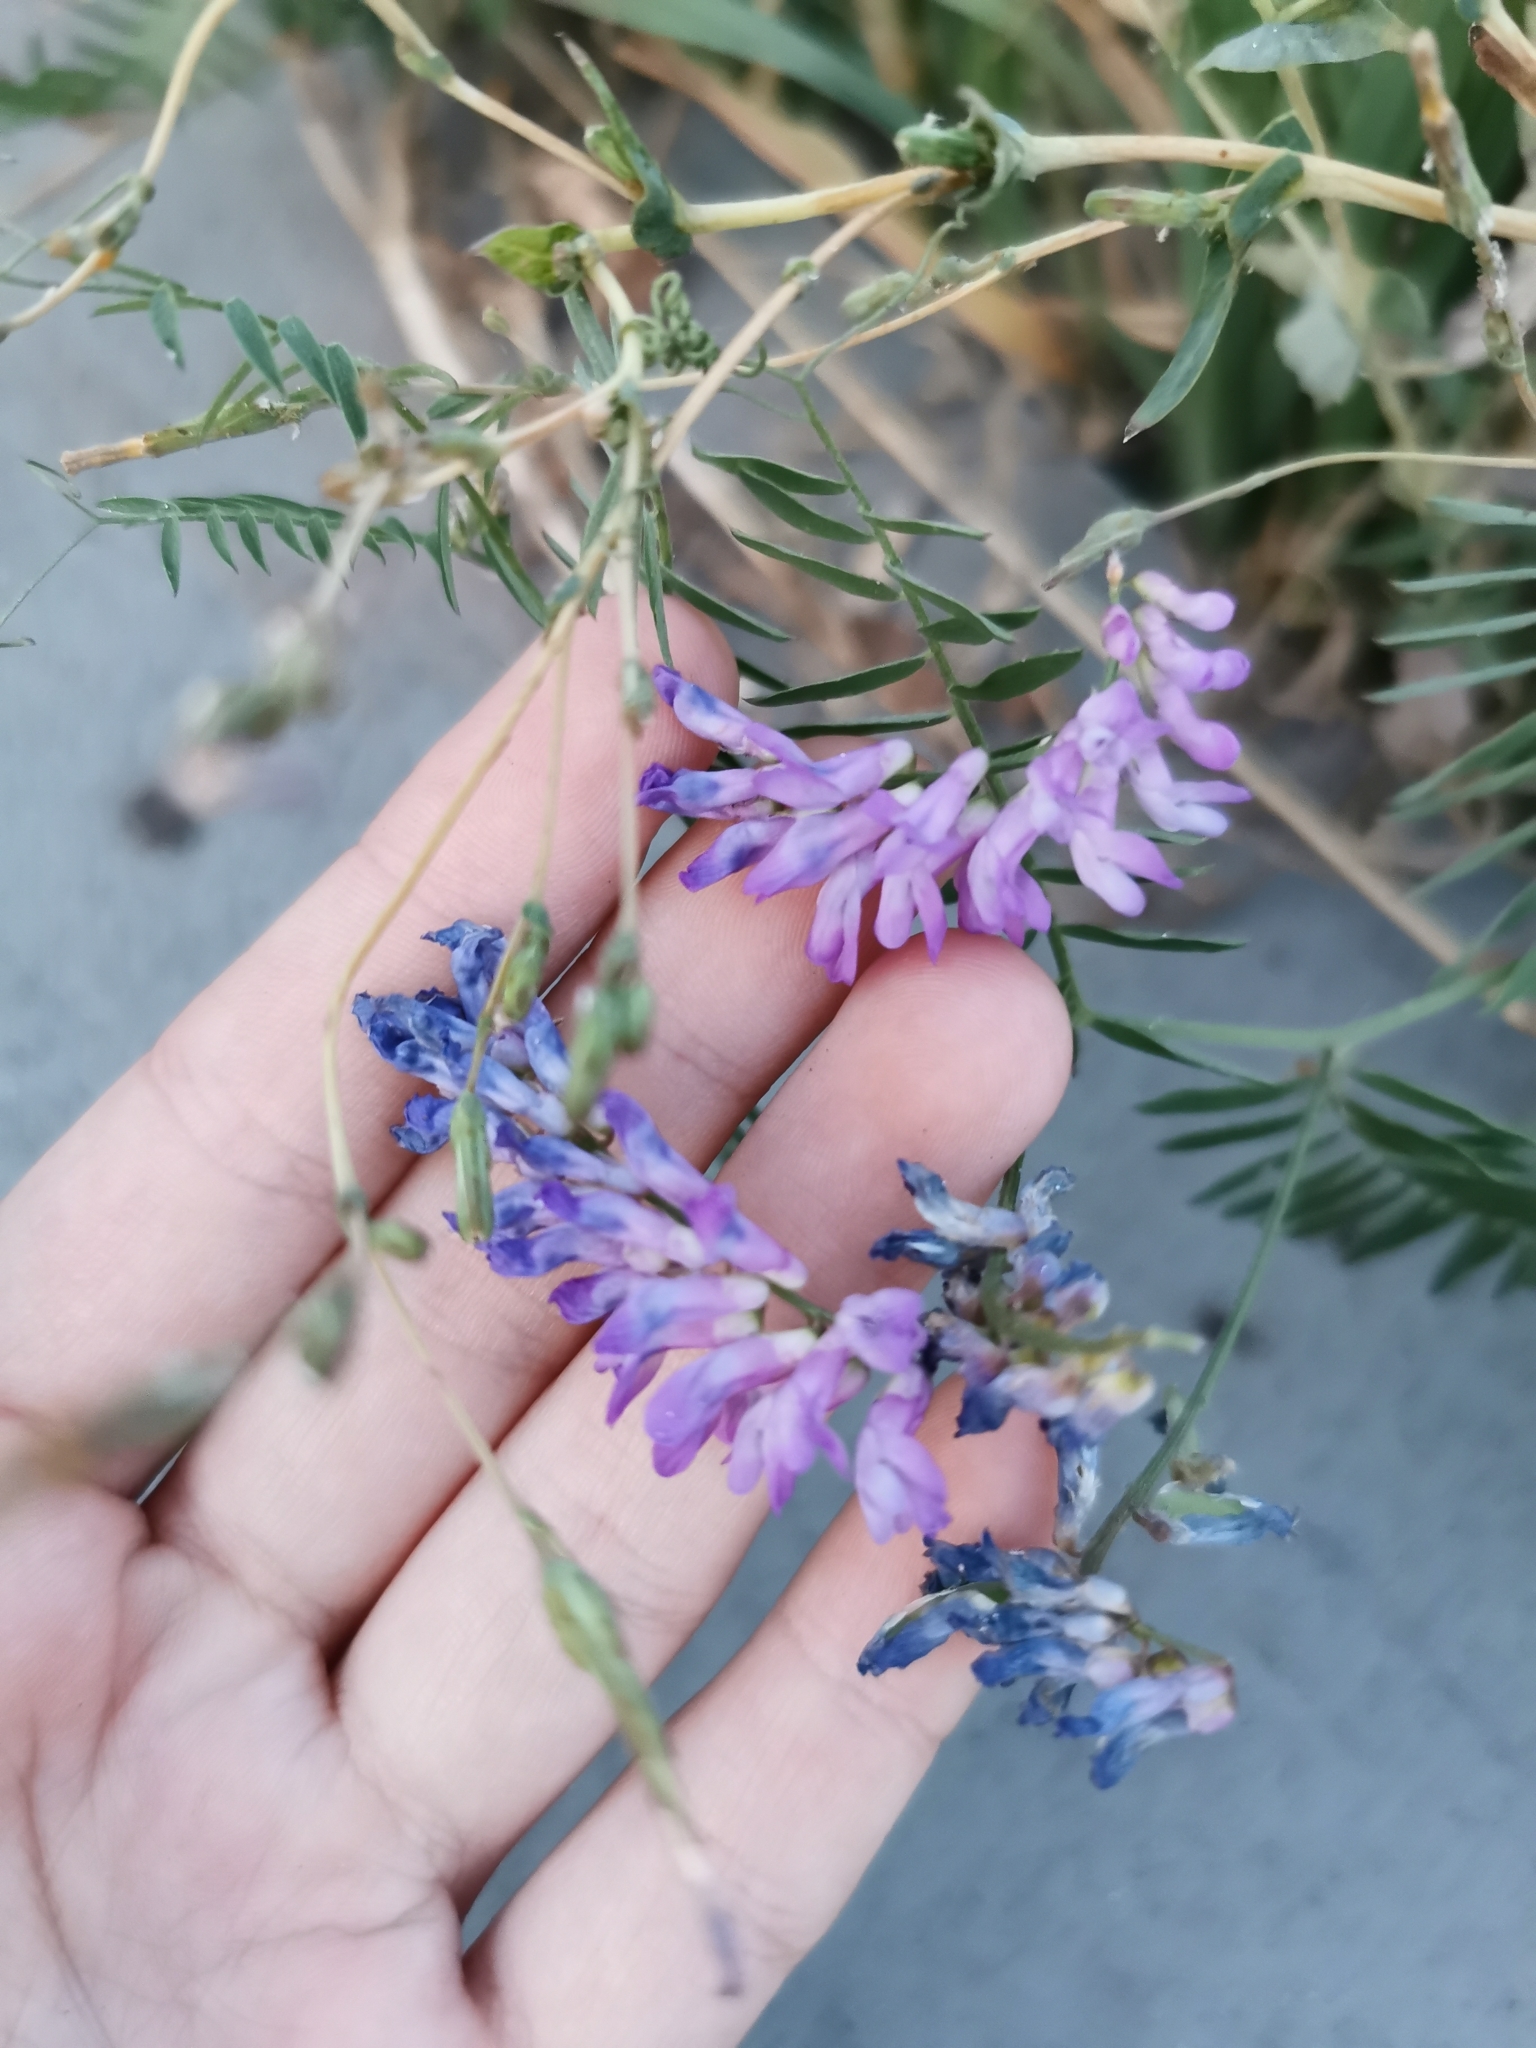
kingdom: Plantae
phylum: Tracheophyta
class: Magnoliopsida
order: Fabales
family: Fabaceae
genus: Vicia
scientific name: Vicia cracca
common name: Bird vetch
